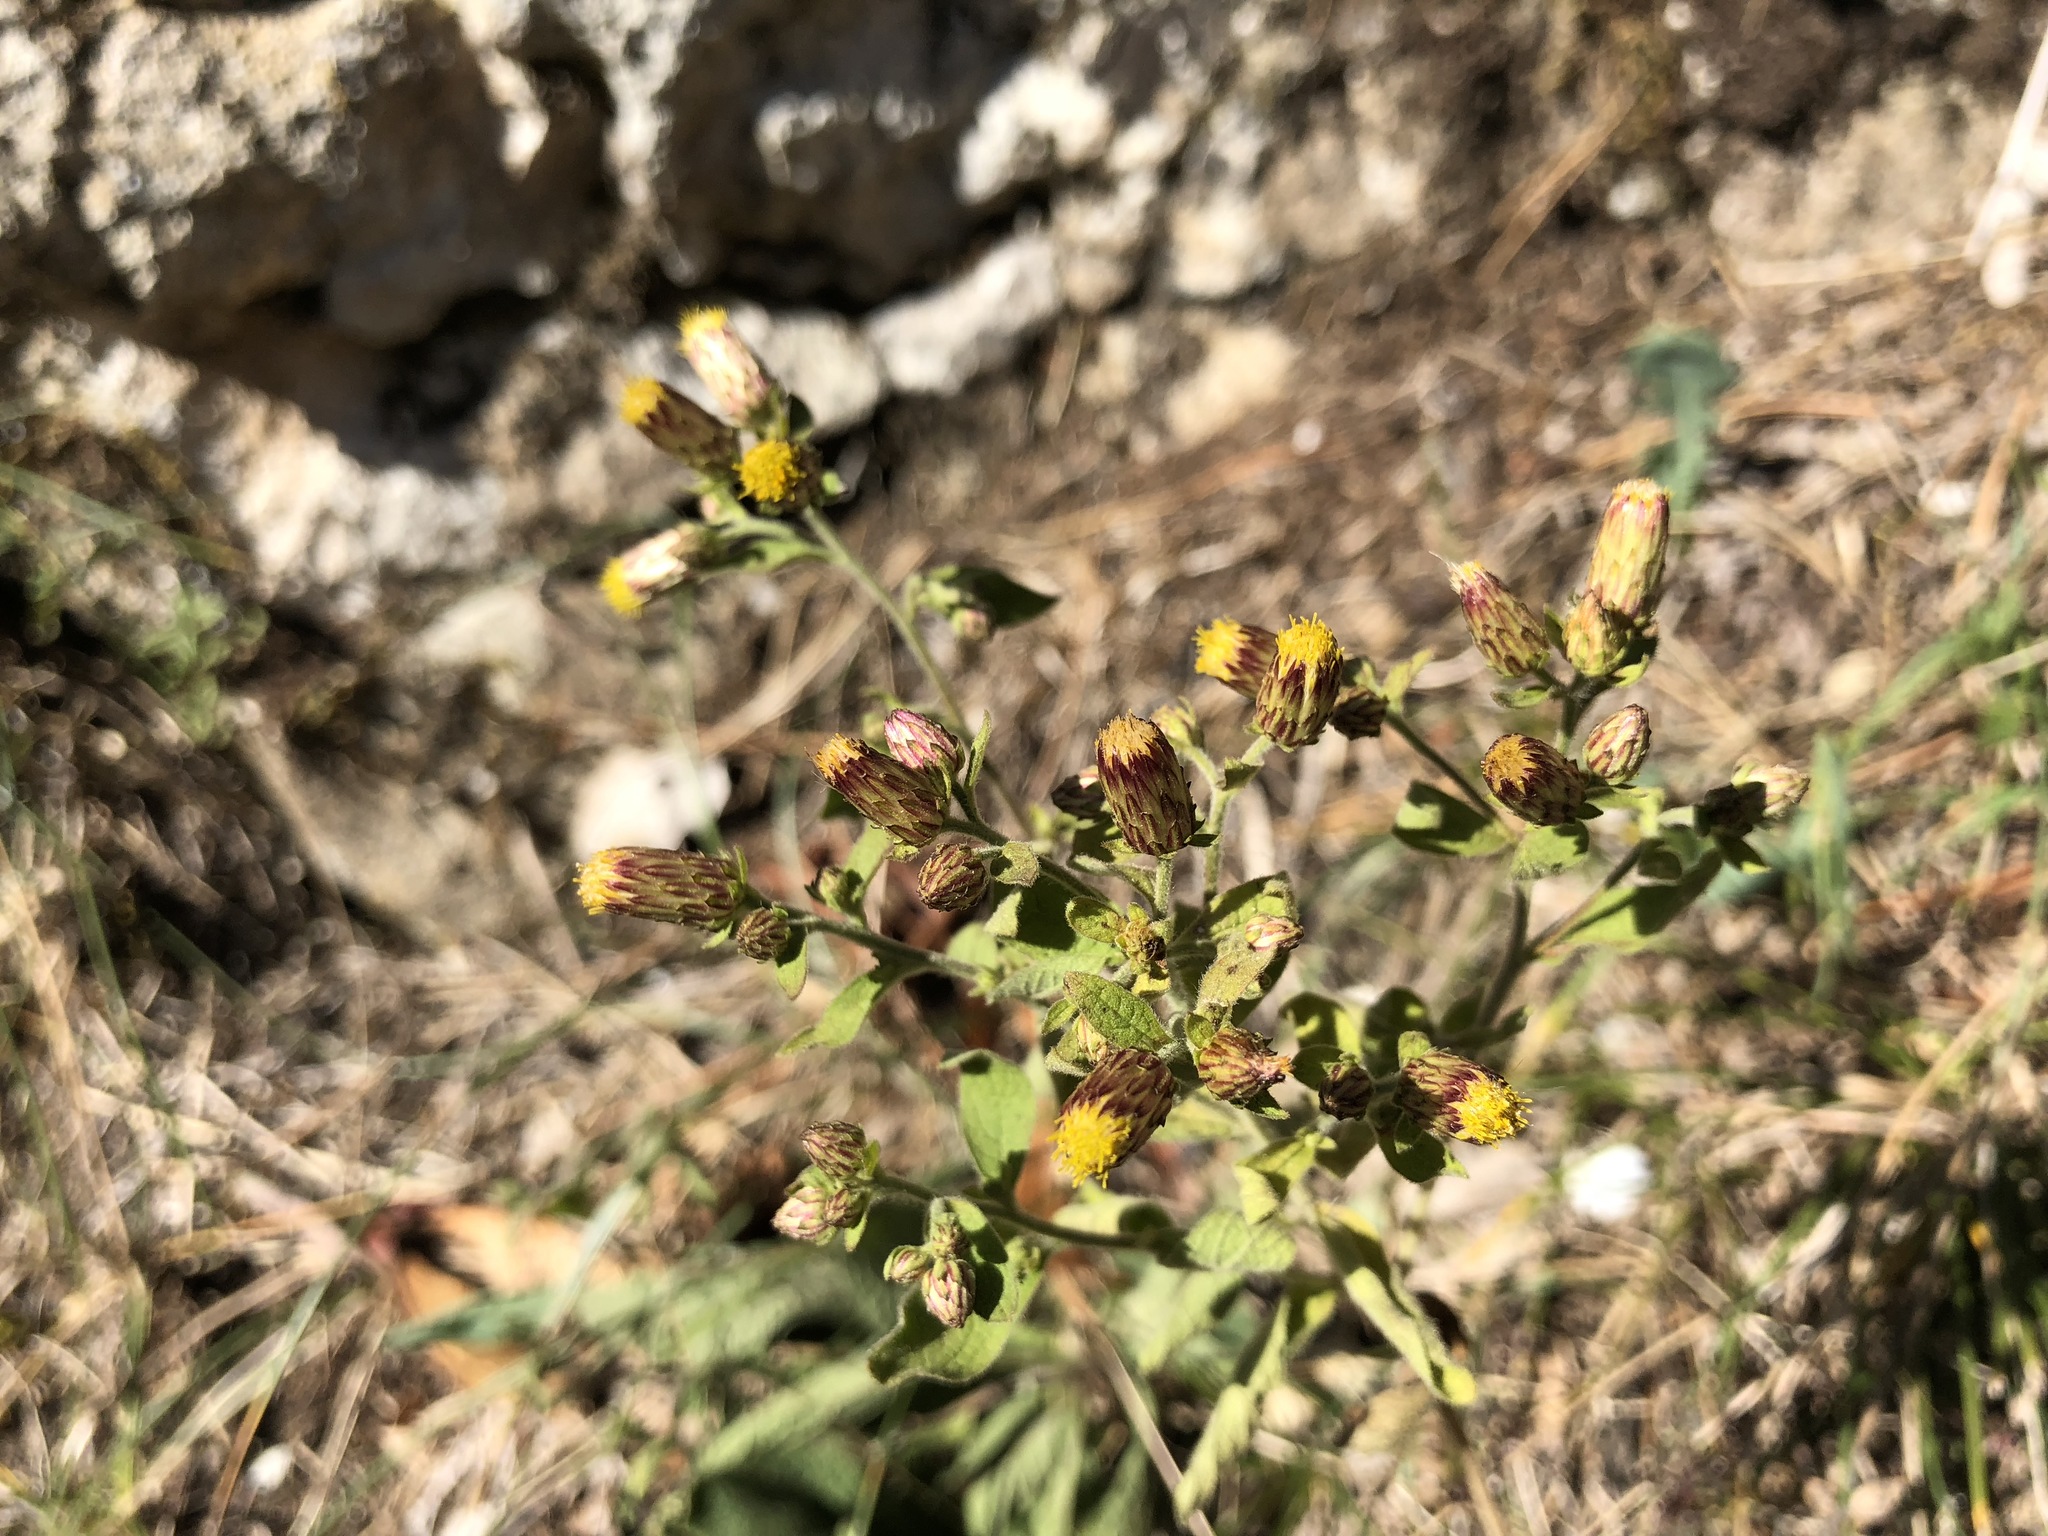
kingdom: Plantae
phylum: Tracheophyta
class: Magnoliopsida
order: Asterales
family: Asteraceae
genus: Pentanema
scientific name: Pentanema squarrosum
